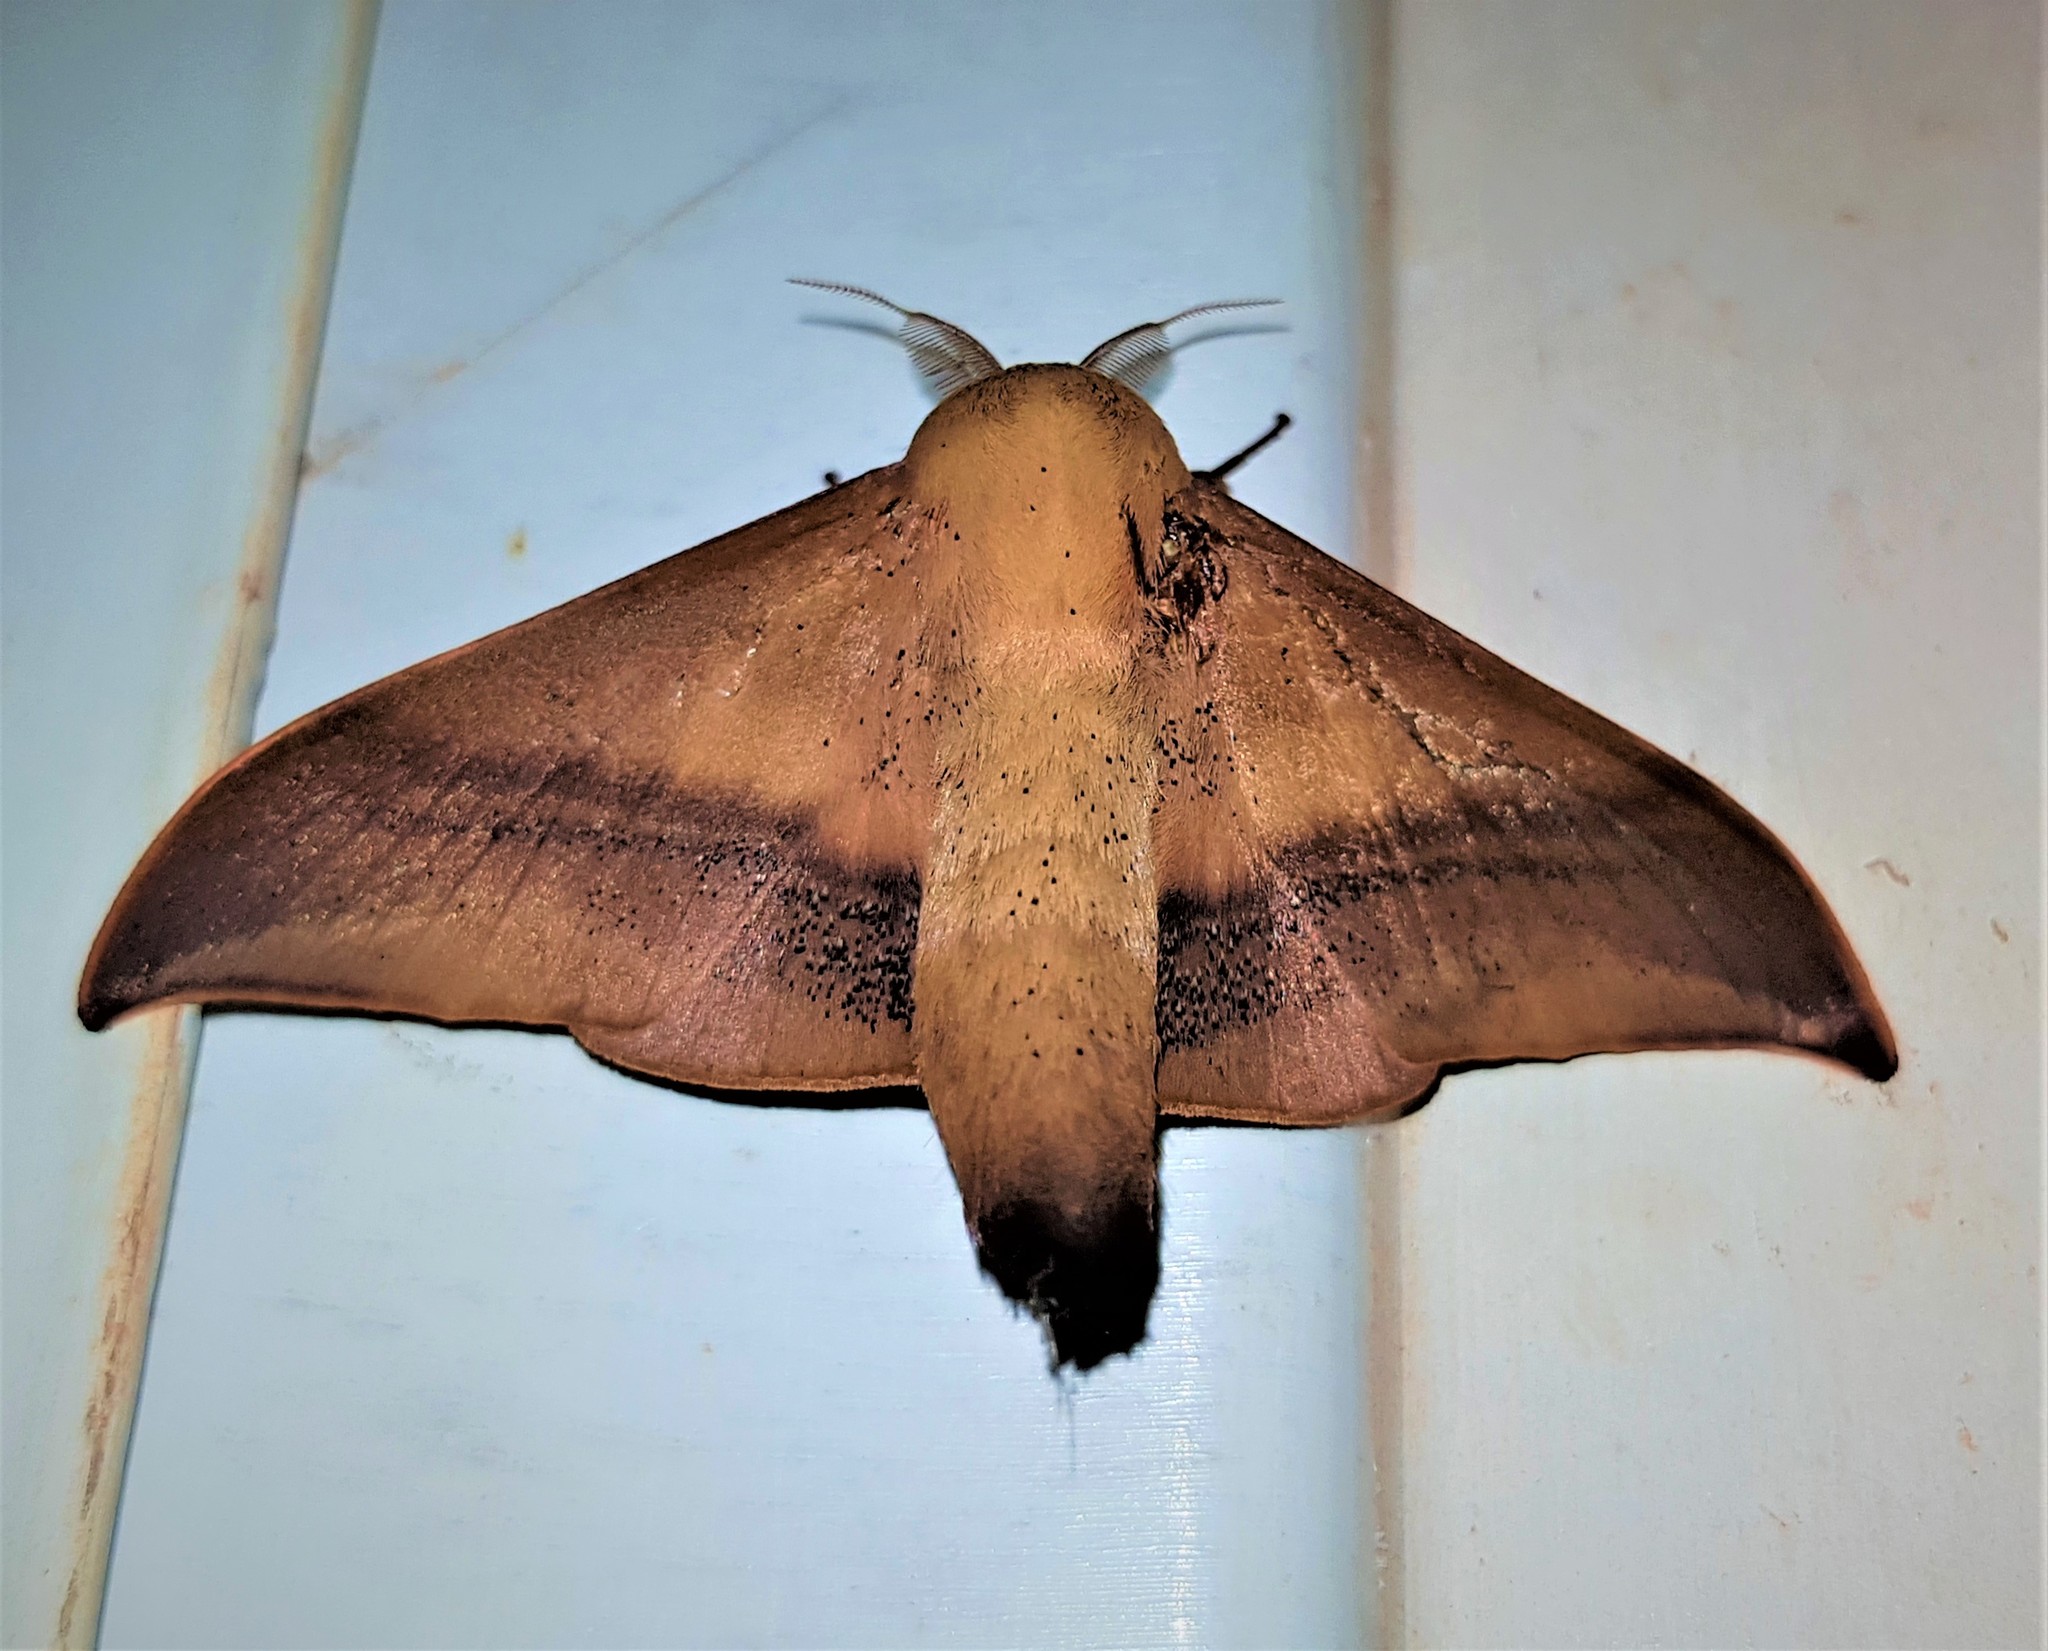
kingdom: Animalia
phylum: Arthropoda
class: Insecta
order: Lepidoptera
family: Mimallonidae
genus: Cicinnus
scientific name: Cicinnus joanna
